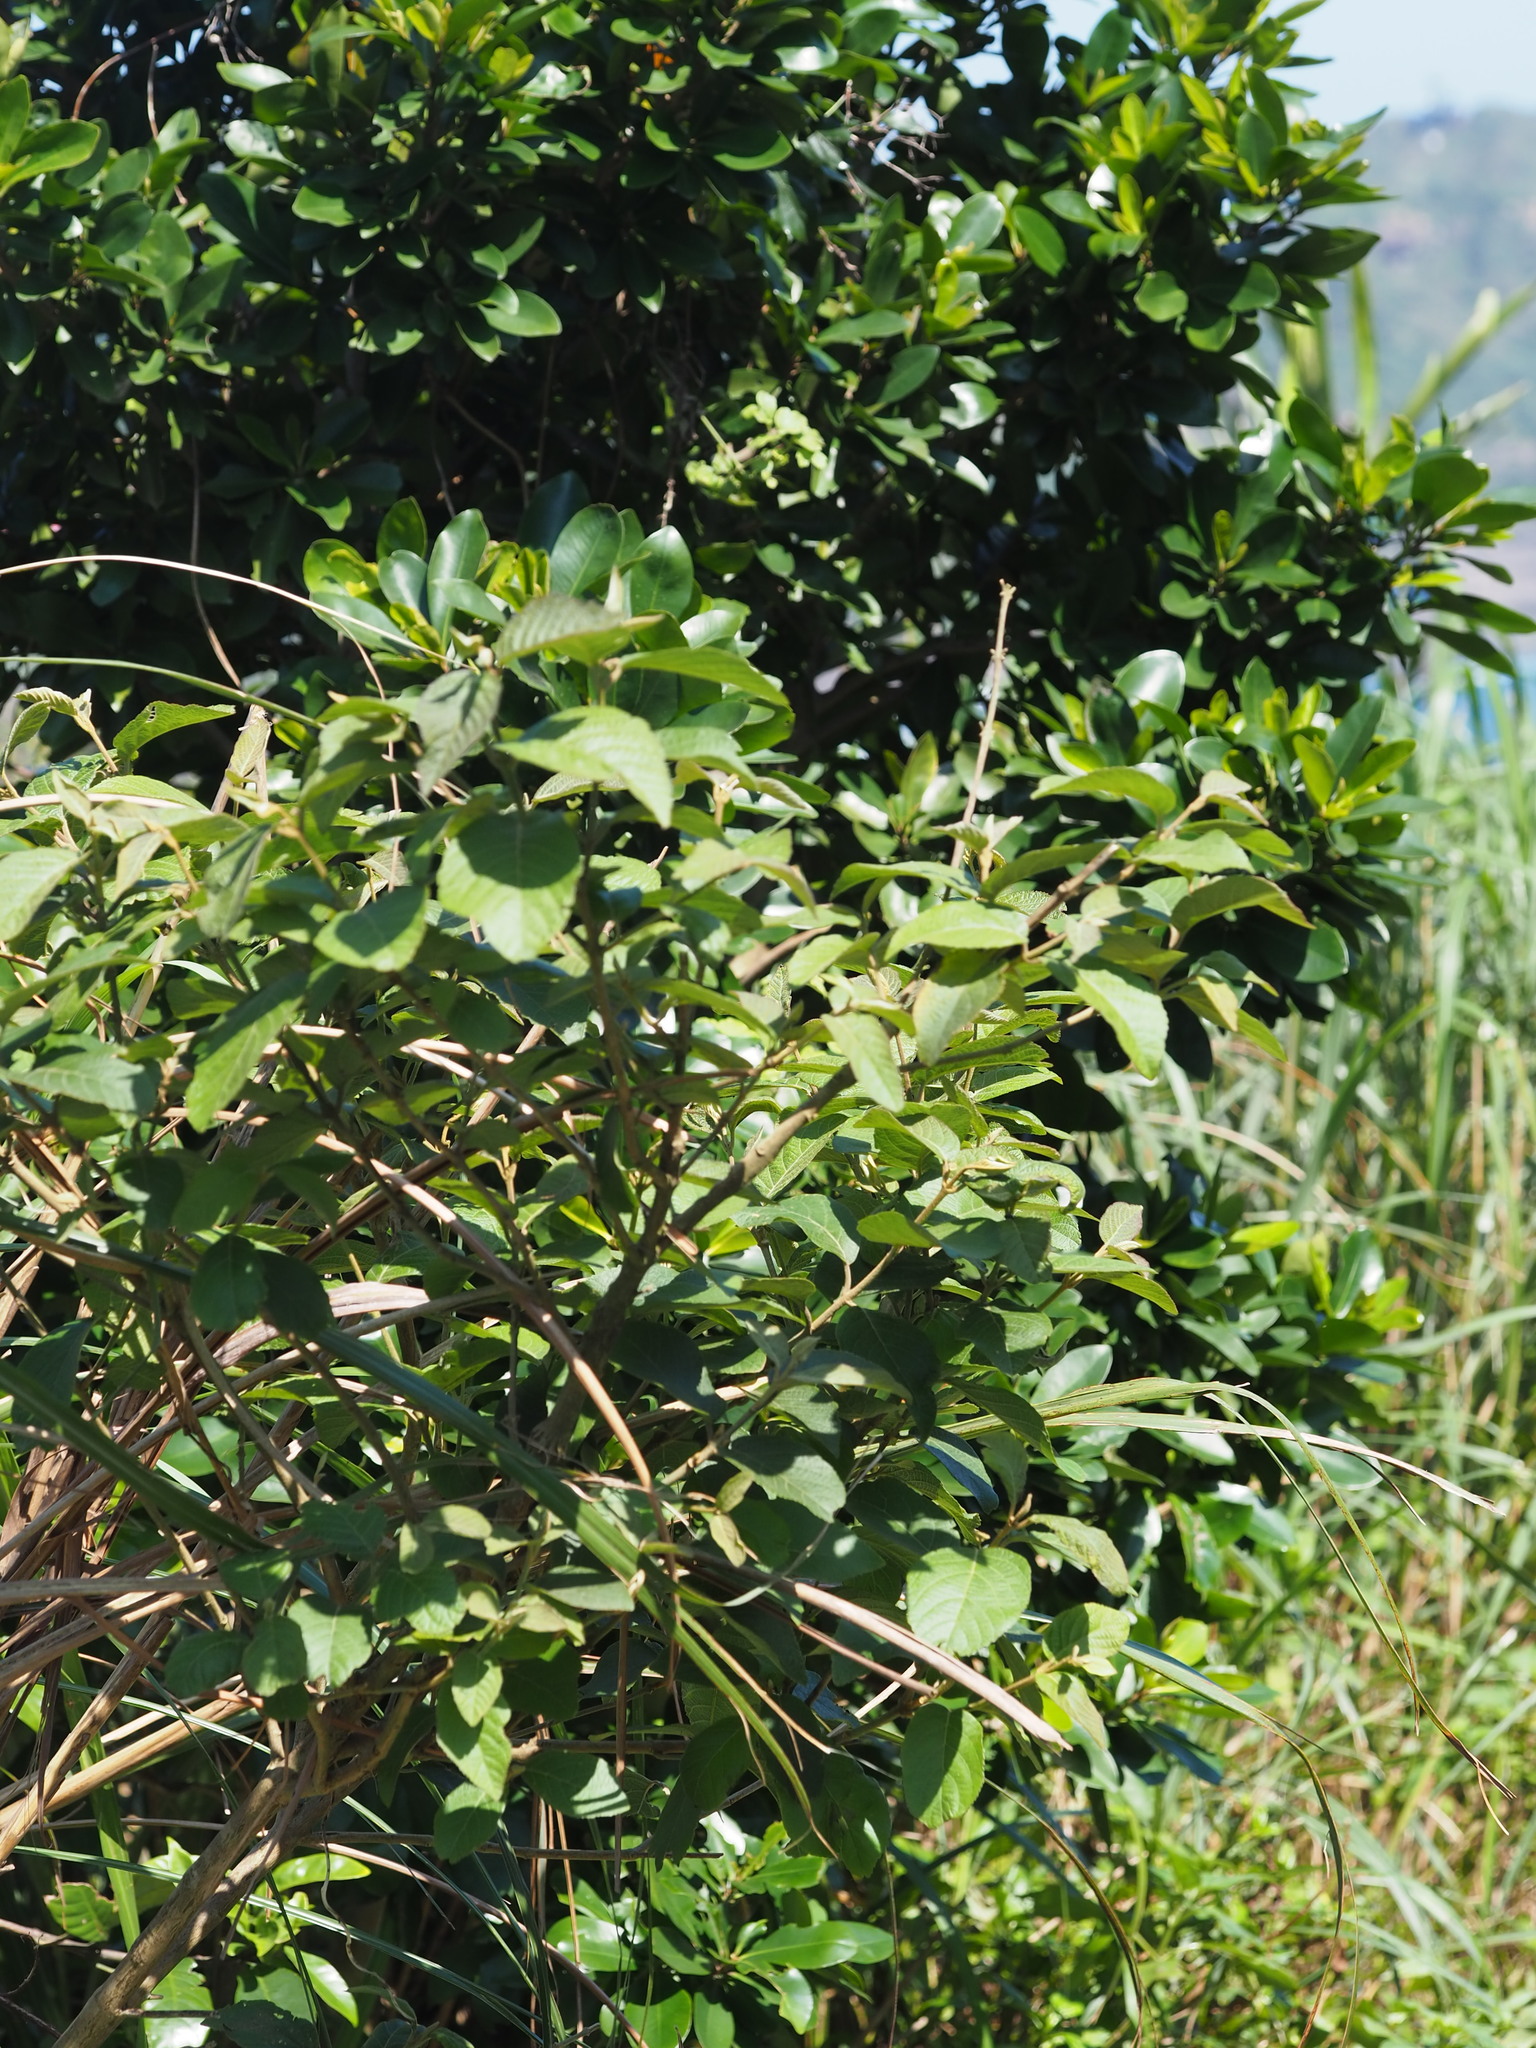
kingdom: Plantae
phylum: Tracheophyta
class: Magnoliopsida
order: Lamiales
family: Lamiaceae
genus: Callicarpa
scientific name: Callicarpa pedunculata
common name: Velvetleaf
